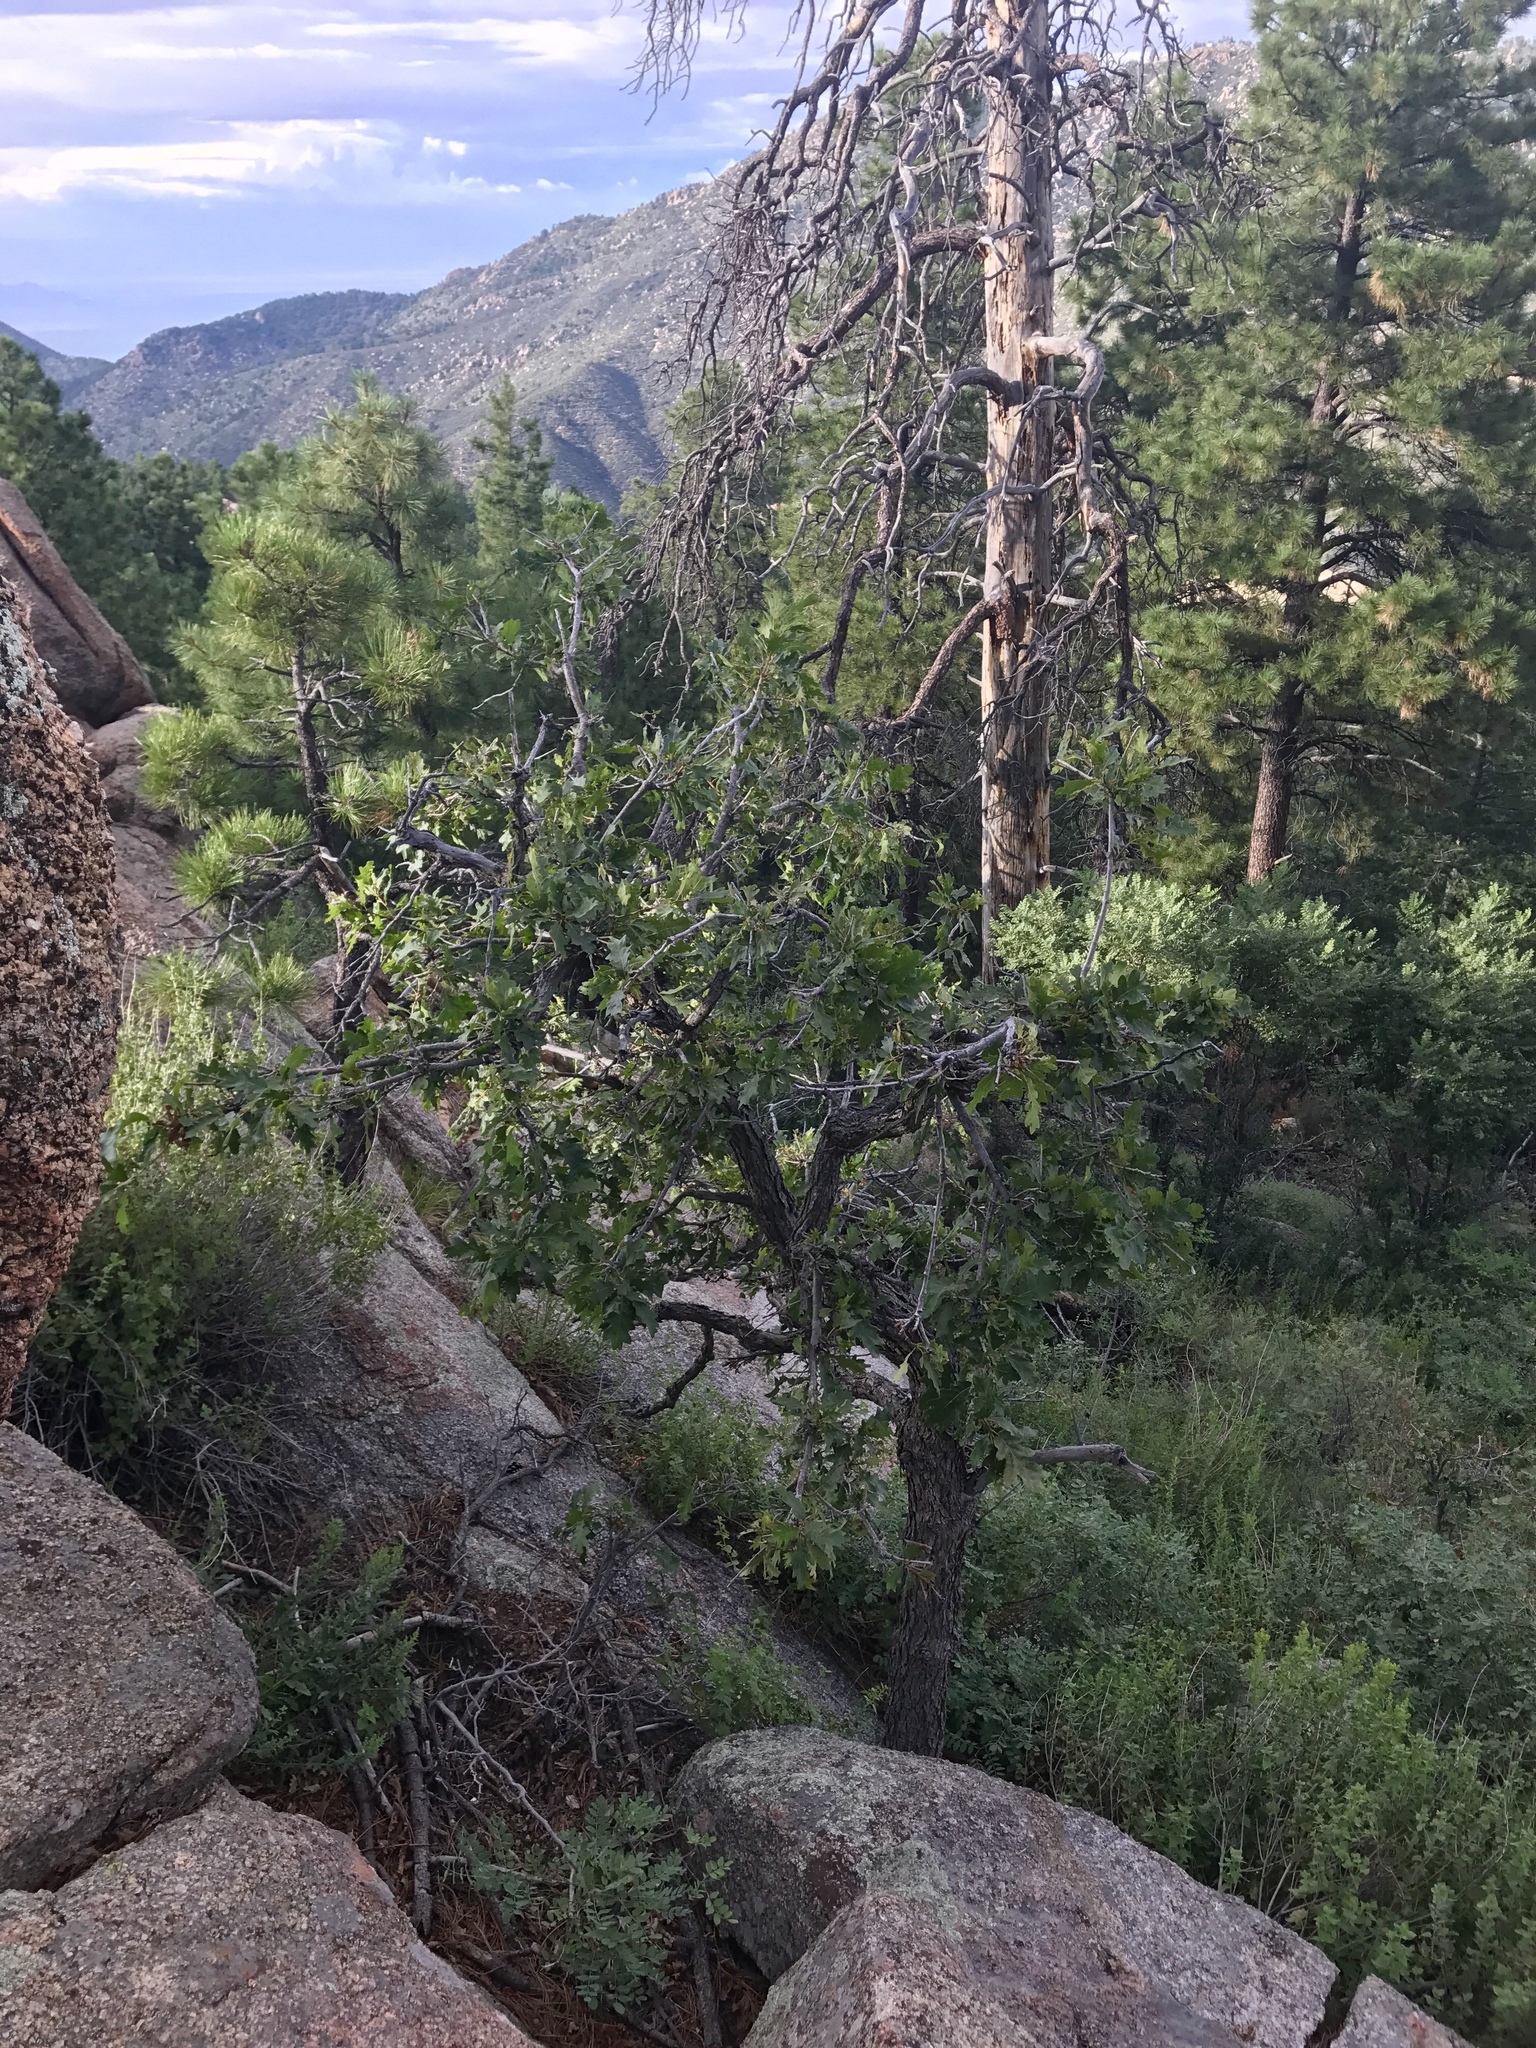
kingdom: Plantae
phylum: Tracheophyta
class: Magnoliopsida
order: Fagales
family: Fagaceae
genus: Quercus
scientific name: Quercus gambelii
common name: Gambel oak
